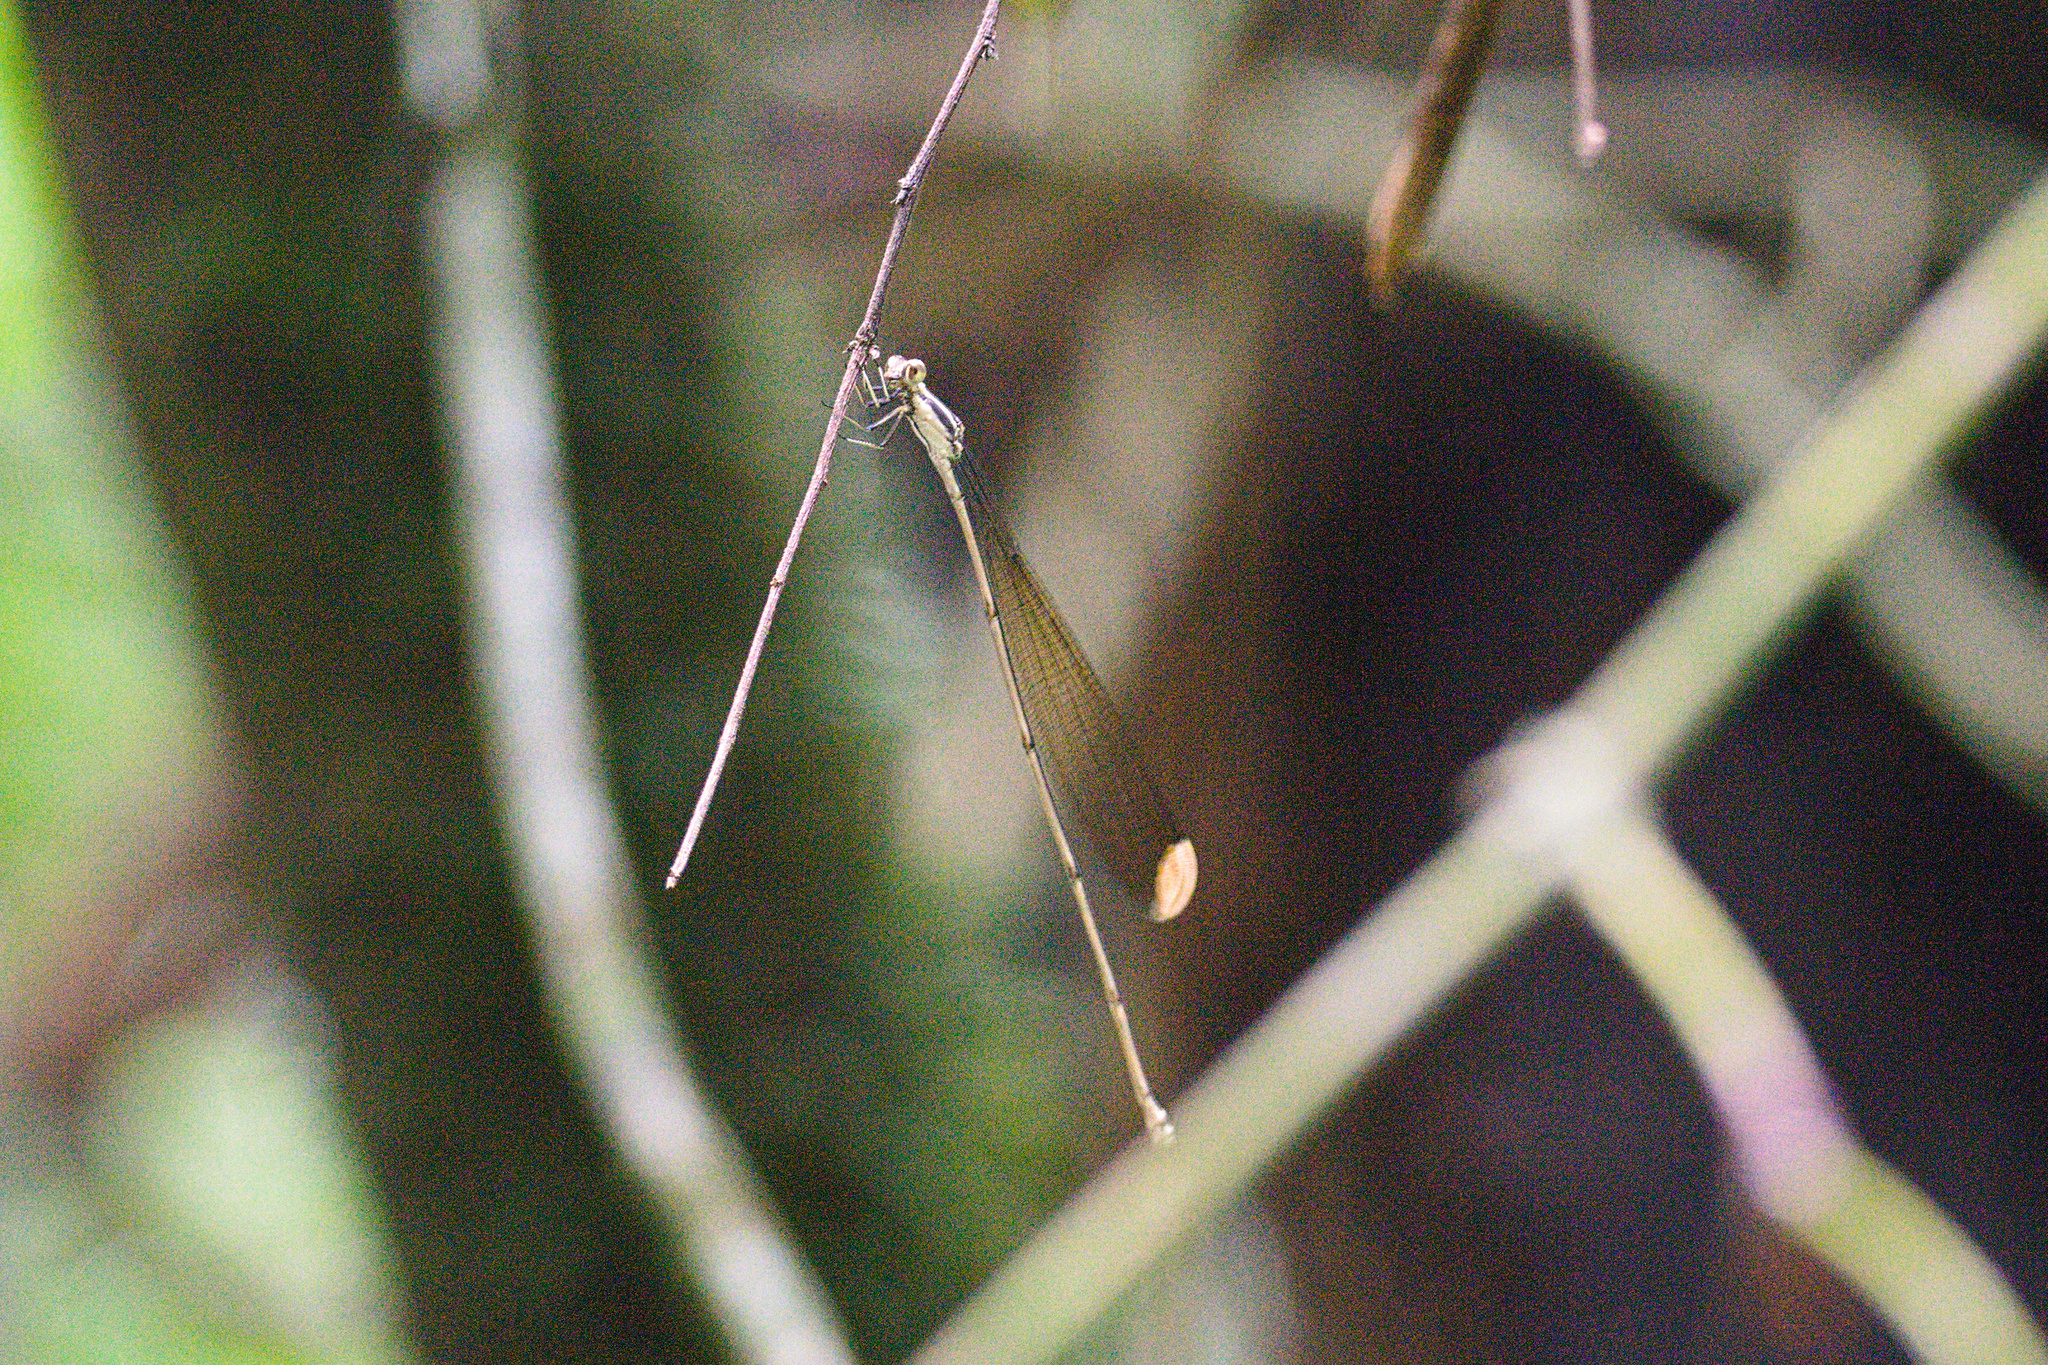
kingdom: Animalia
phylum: Arthropoda
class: Insecta
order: Odonata
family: Coenagrionidae
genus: Mecistogaster
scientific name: Mecistogaster ornata
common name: Ornate helicopter
